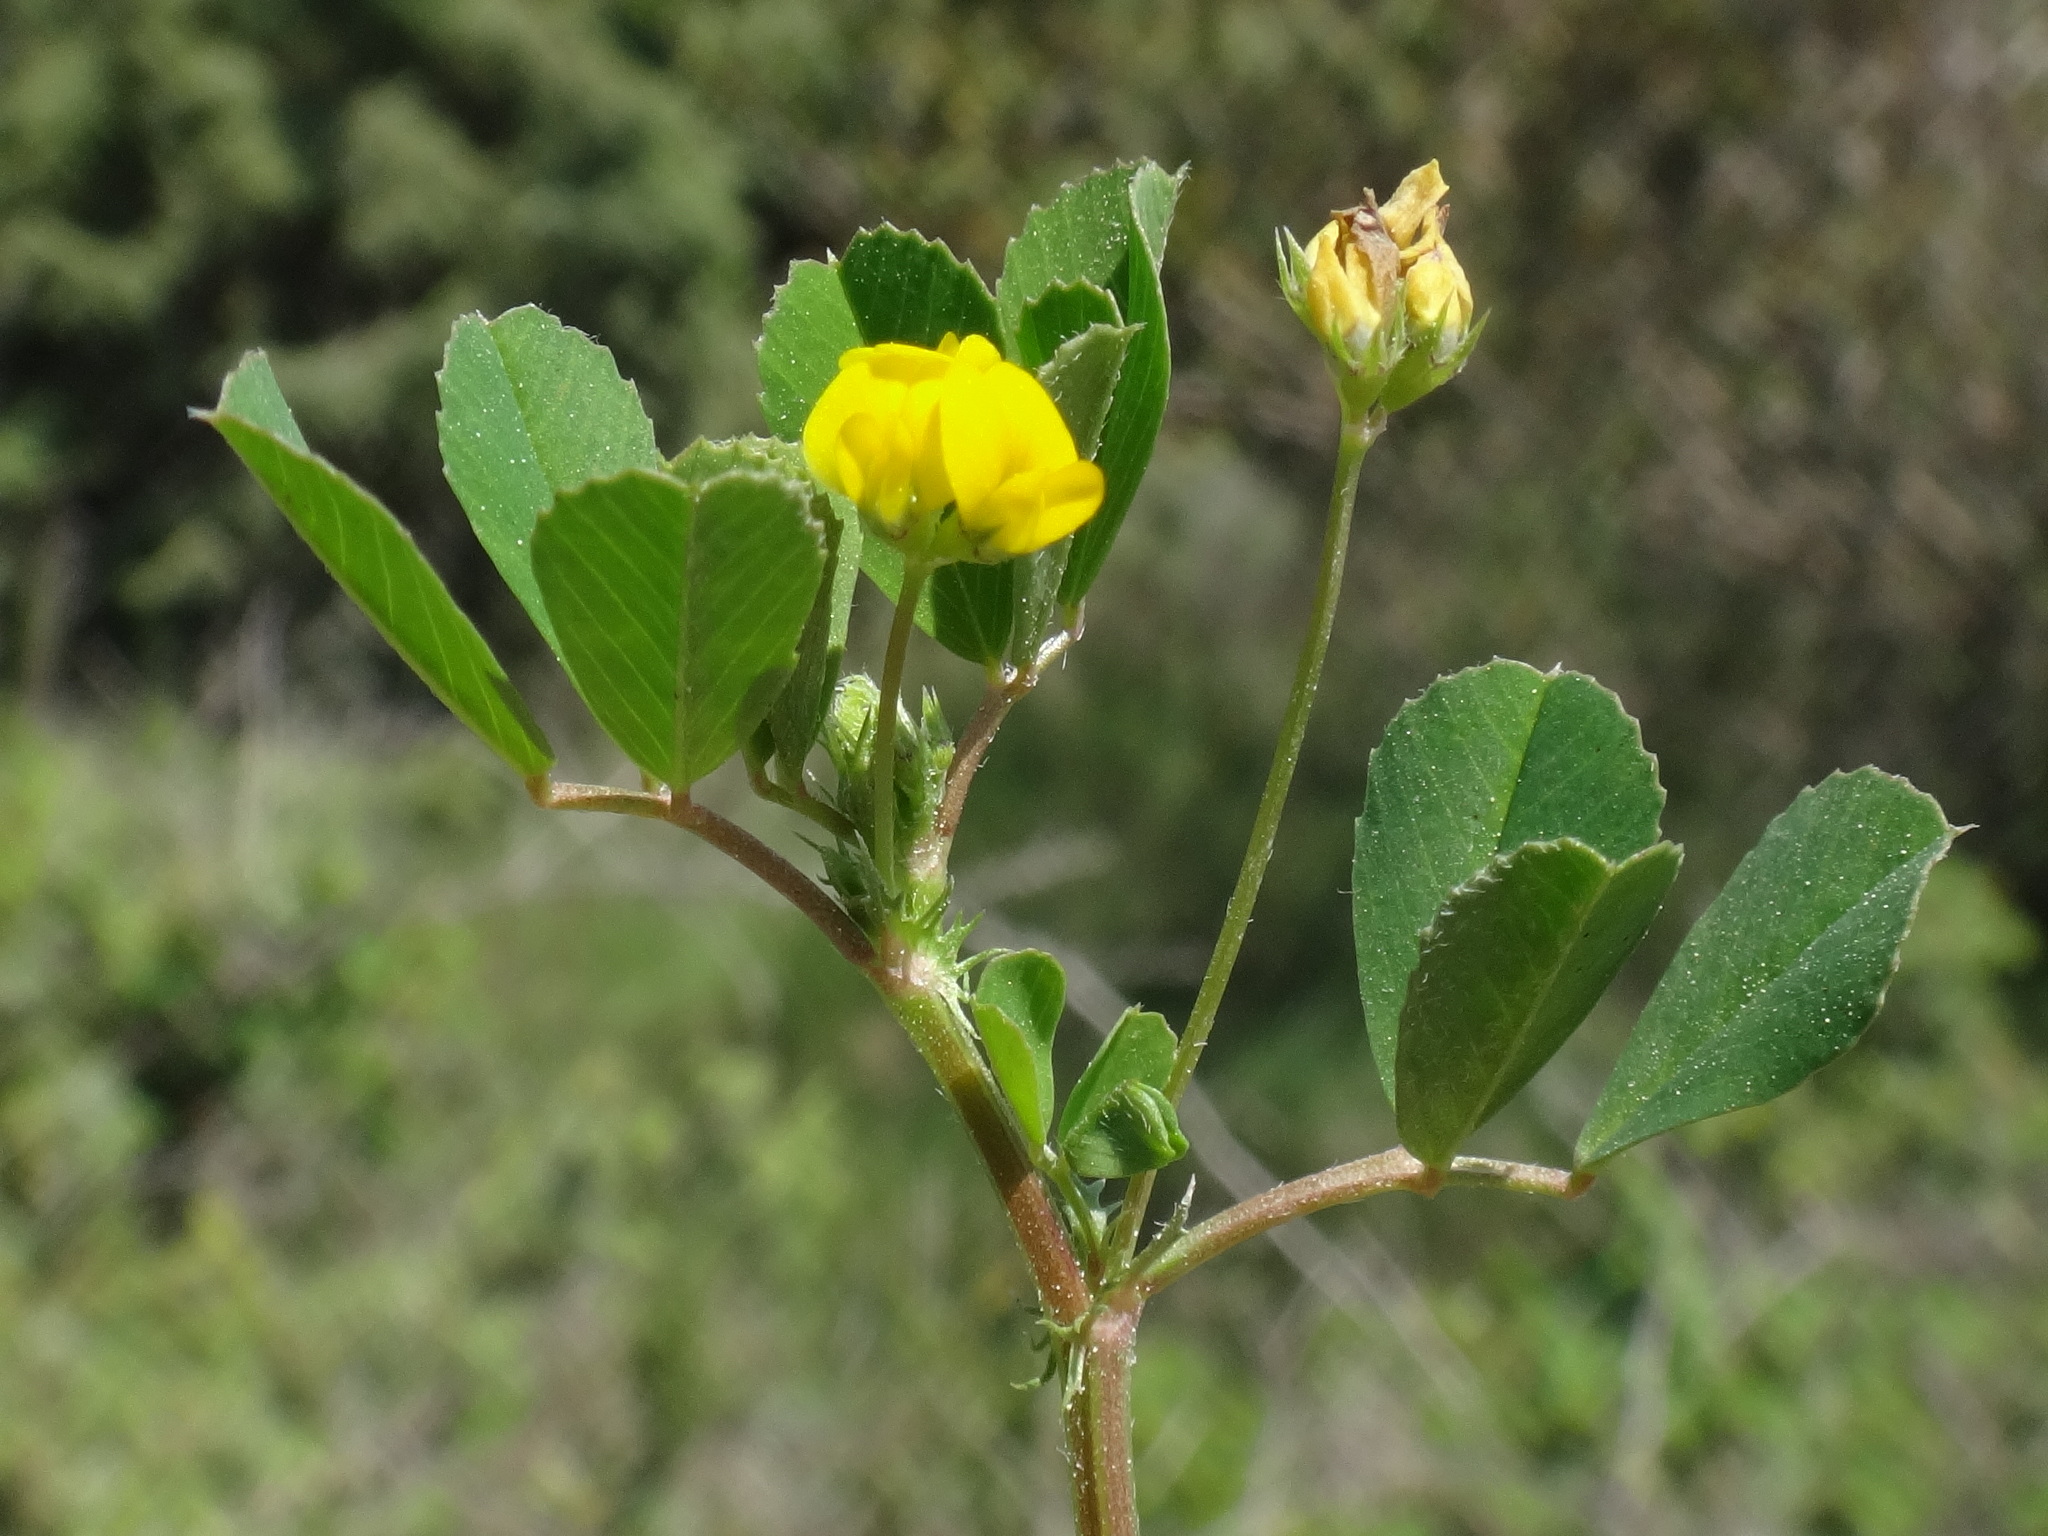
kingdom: Plantae
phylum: Tracheophyta
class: Magnoliopsida
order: Fabales
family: Fabaceae
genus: Medicago
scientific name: Medicago polymorpha
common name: Burclover
